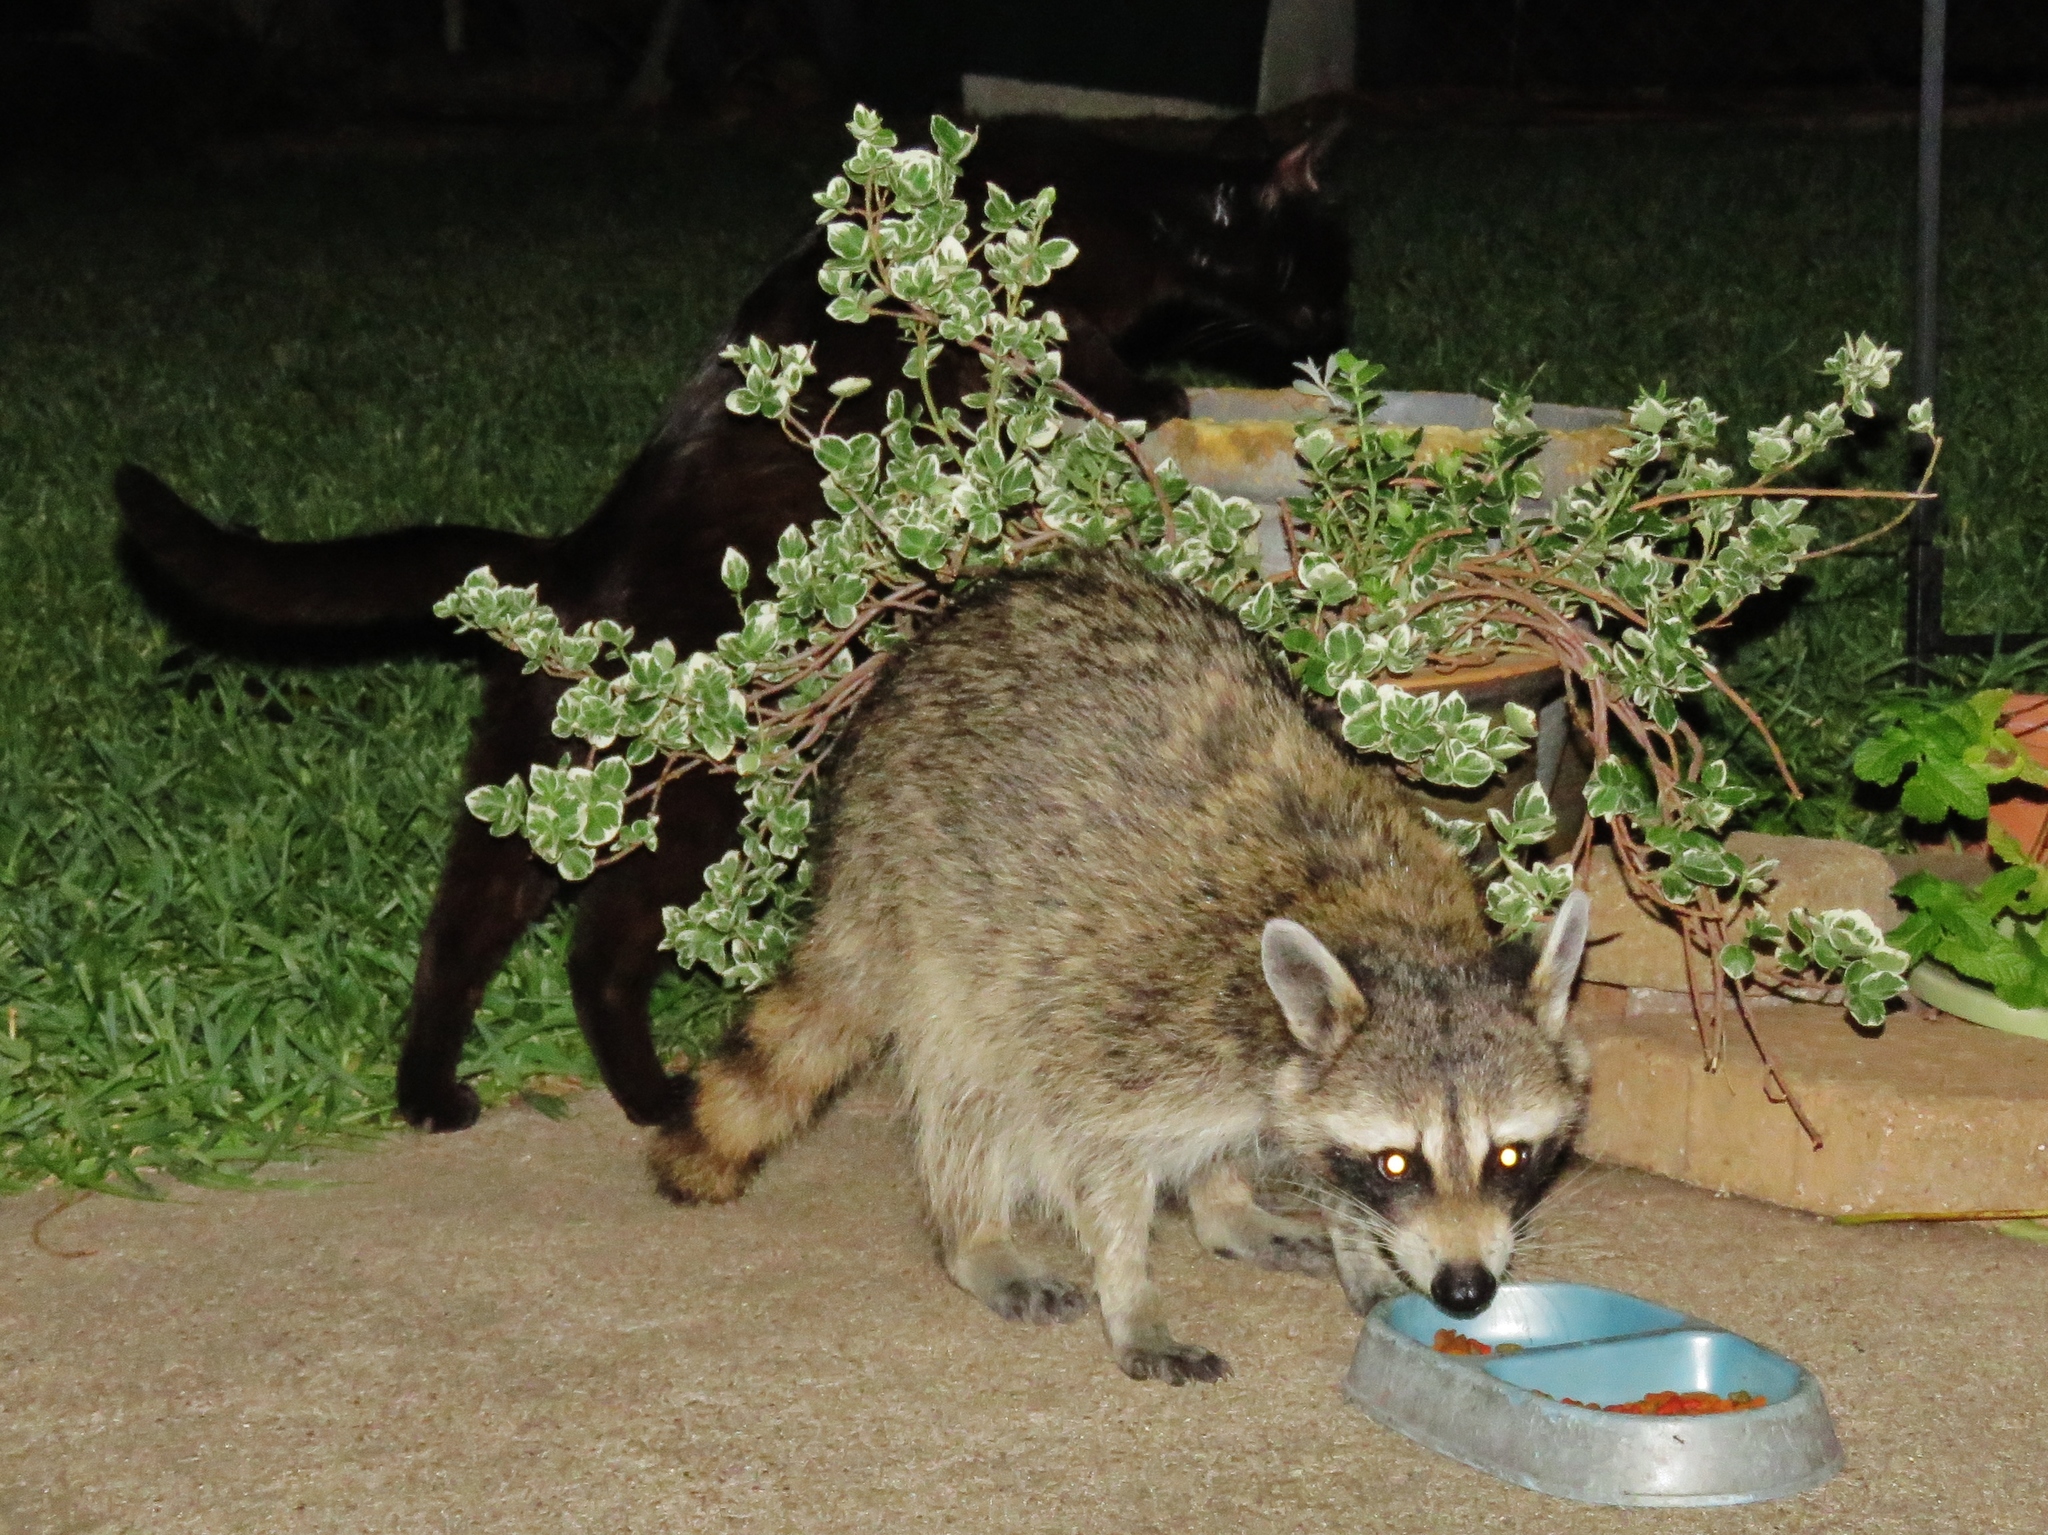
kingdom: Animalia
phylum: Chordata
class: Mammalia
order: Carnivora
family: Procyonidae
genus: Procyon
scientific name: Procyon lotor
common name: Raccoon
